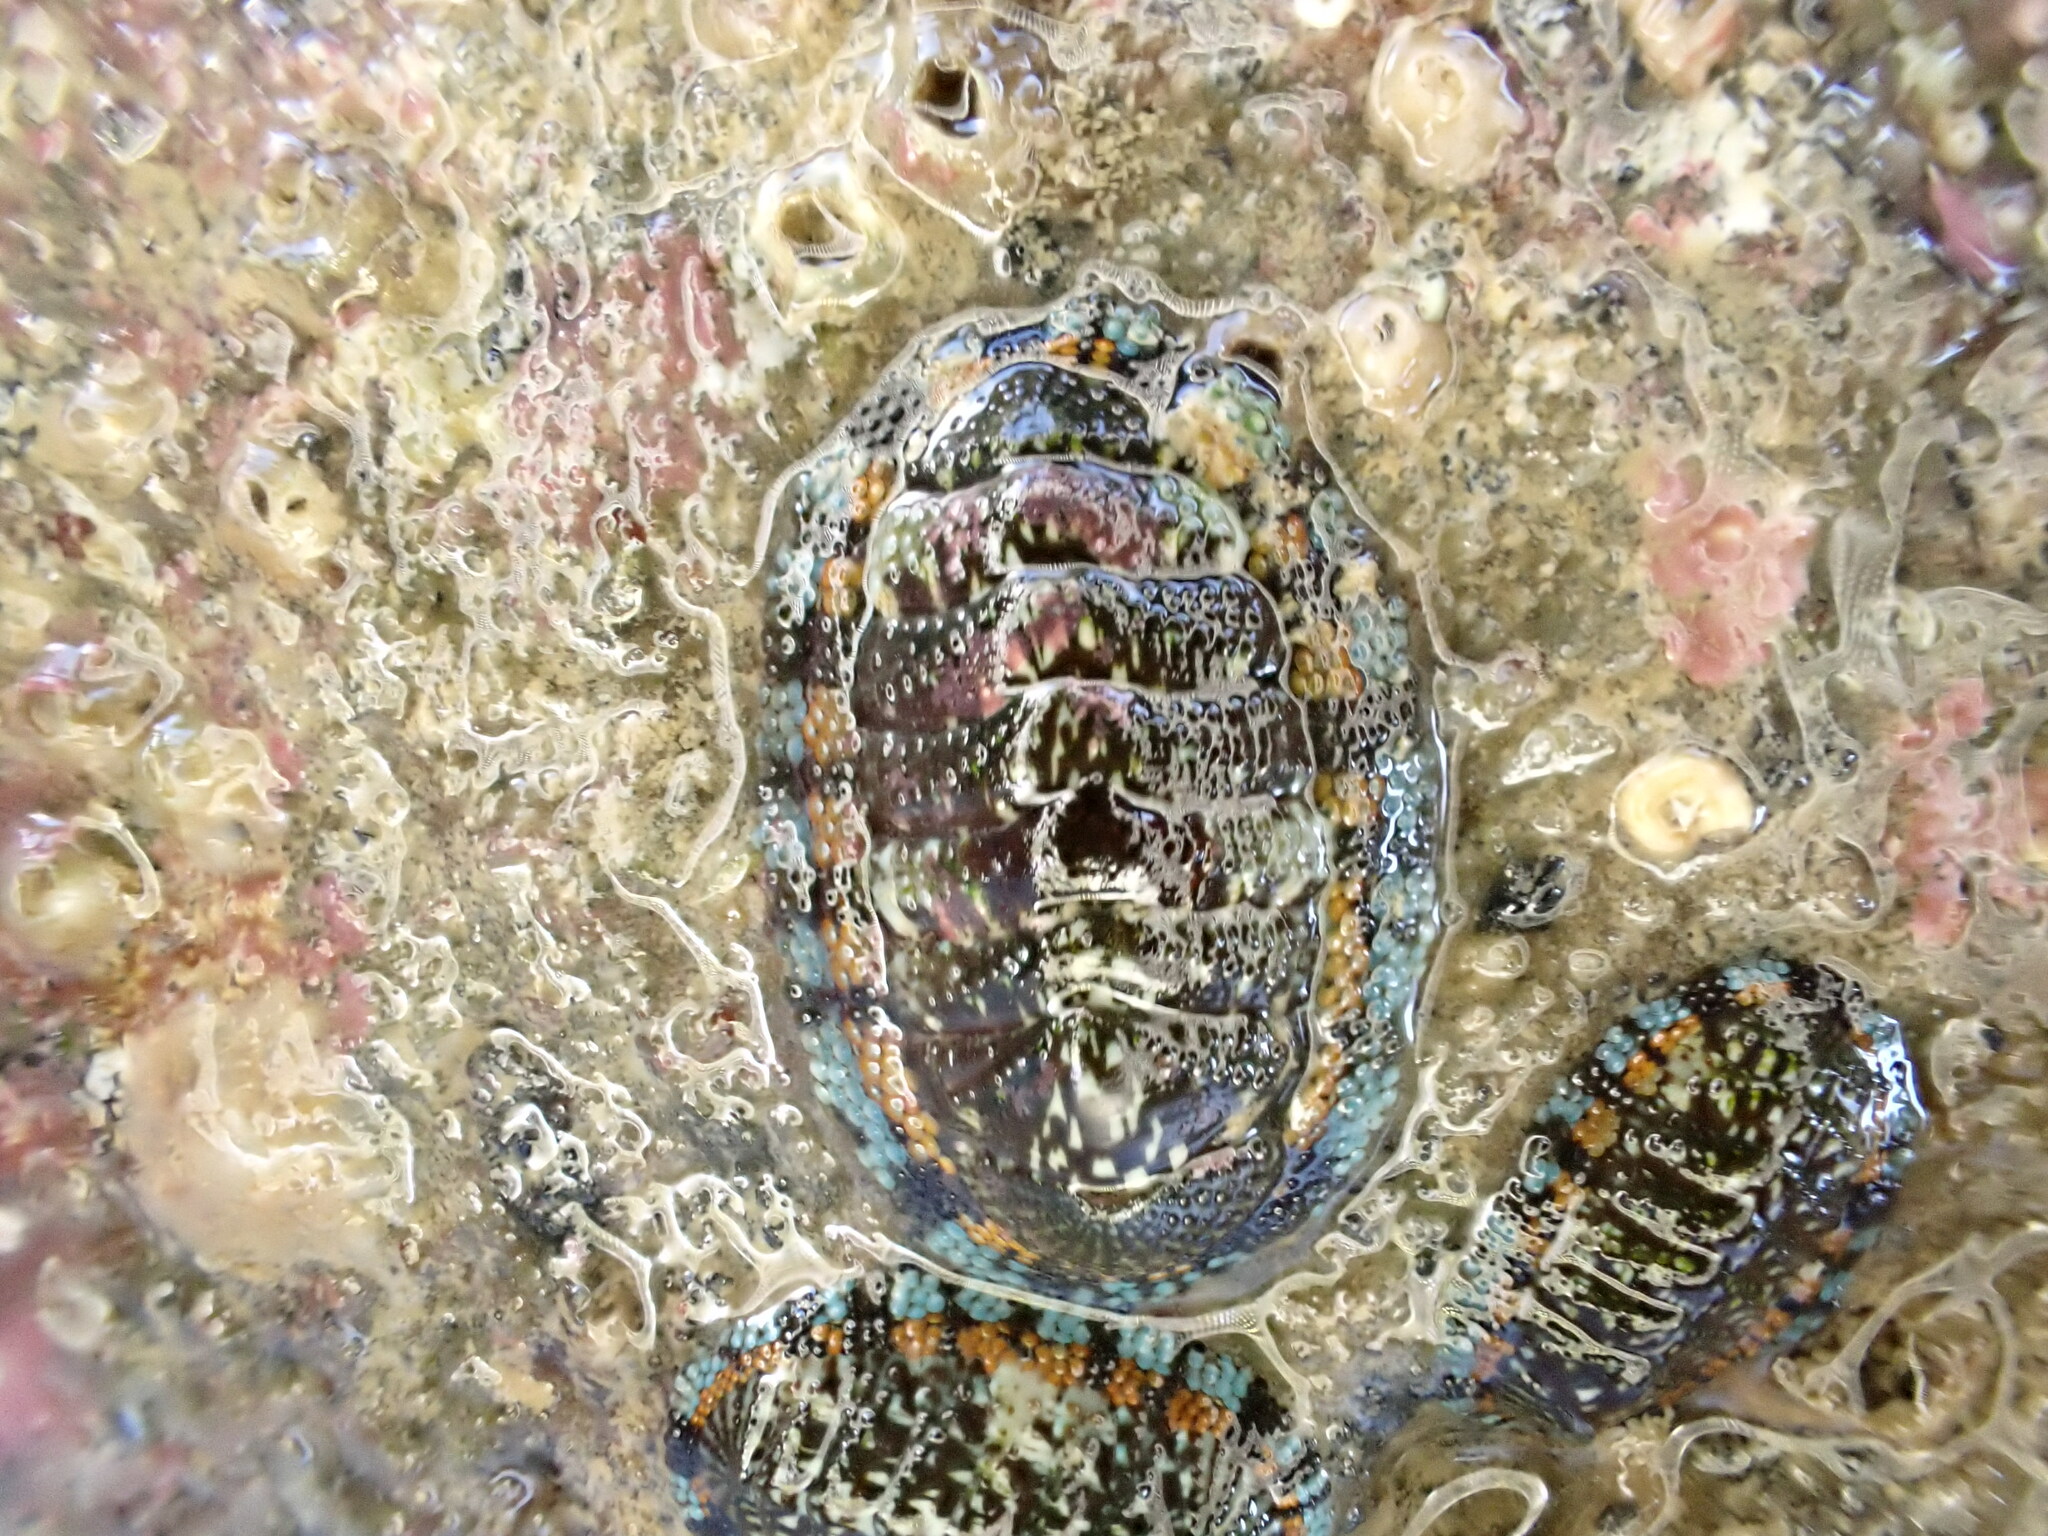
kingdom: Animalia
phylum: Mollusca
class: Polyplacophora
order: Chitonida
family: Chitonidae
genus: Sypharochiton
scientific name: Sypharochiton sinclairi
